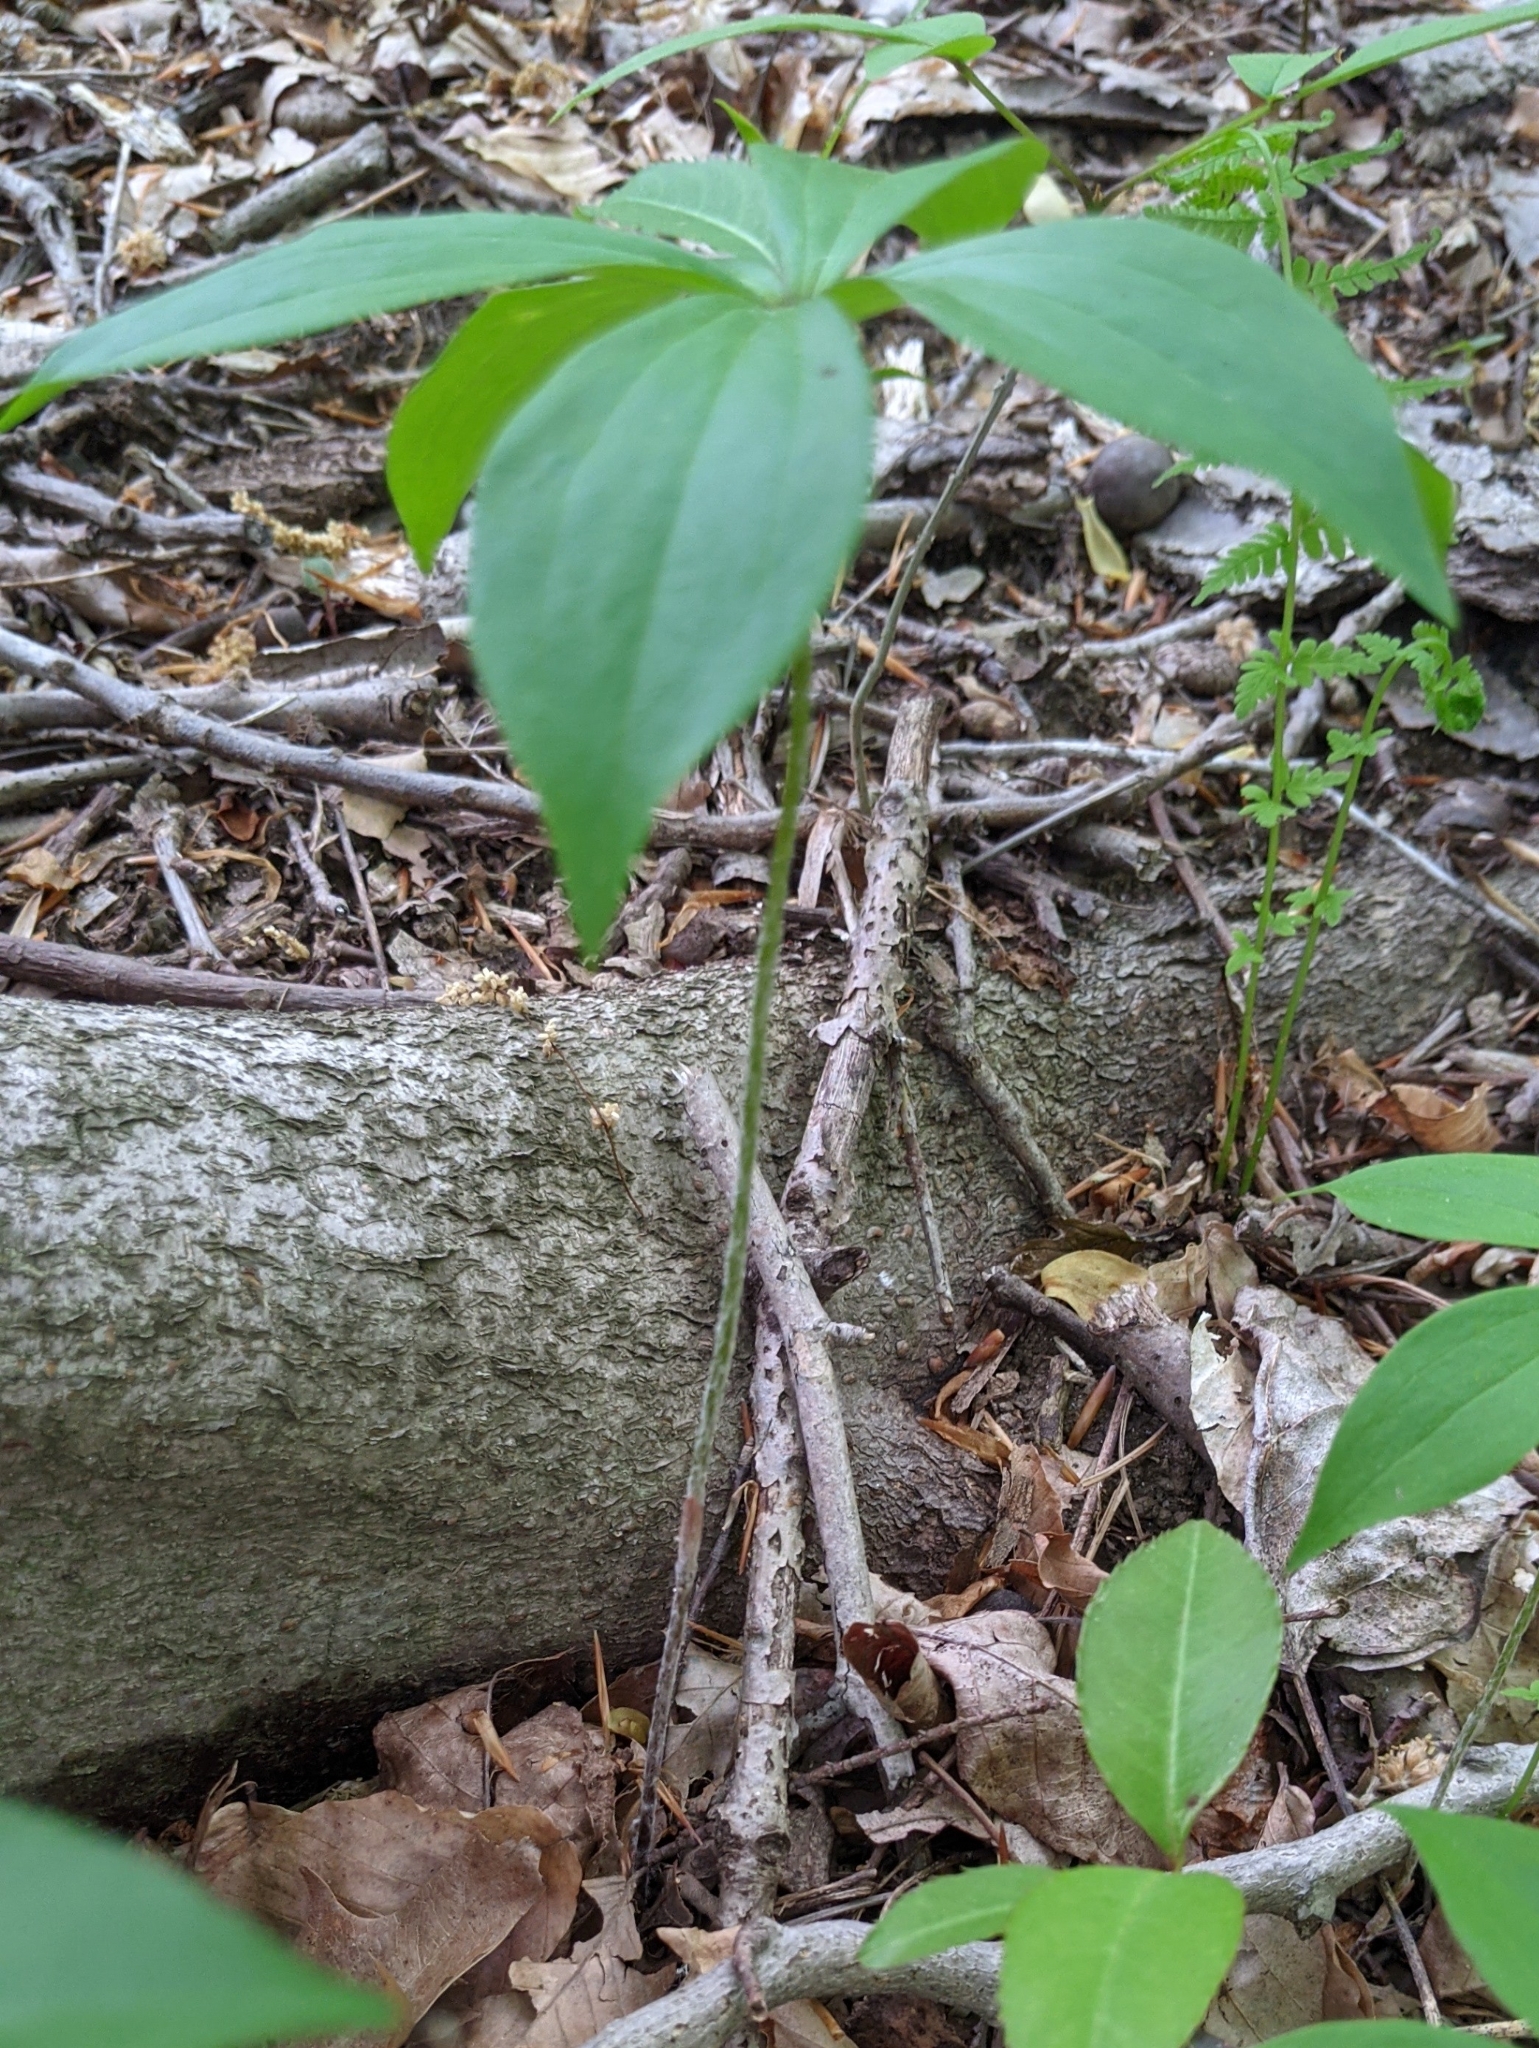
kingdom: Plantae
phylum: Tracheophyta
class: Liliopsida
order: Liliales
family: Liliaceae
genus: Medeola
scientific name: Medeola virginiana
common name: Indian cucumber-root
